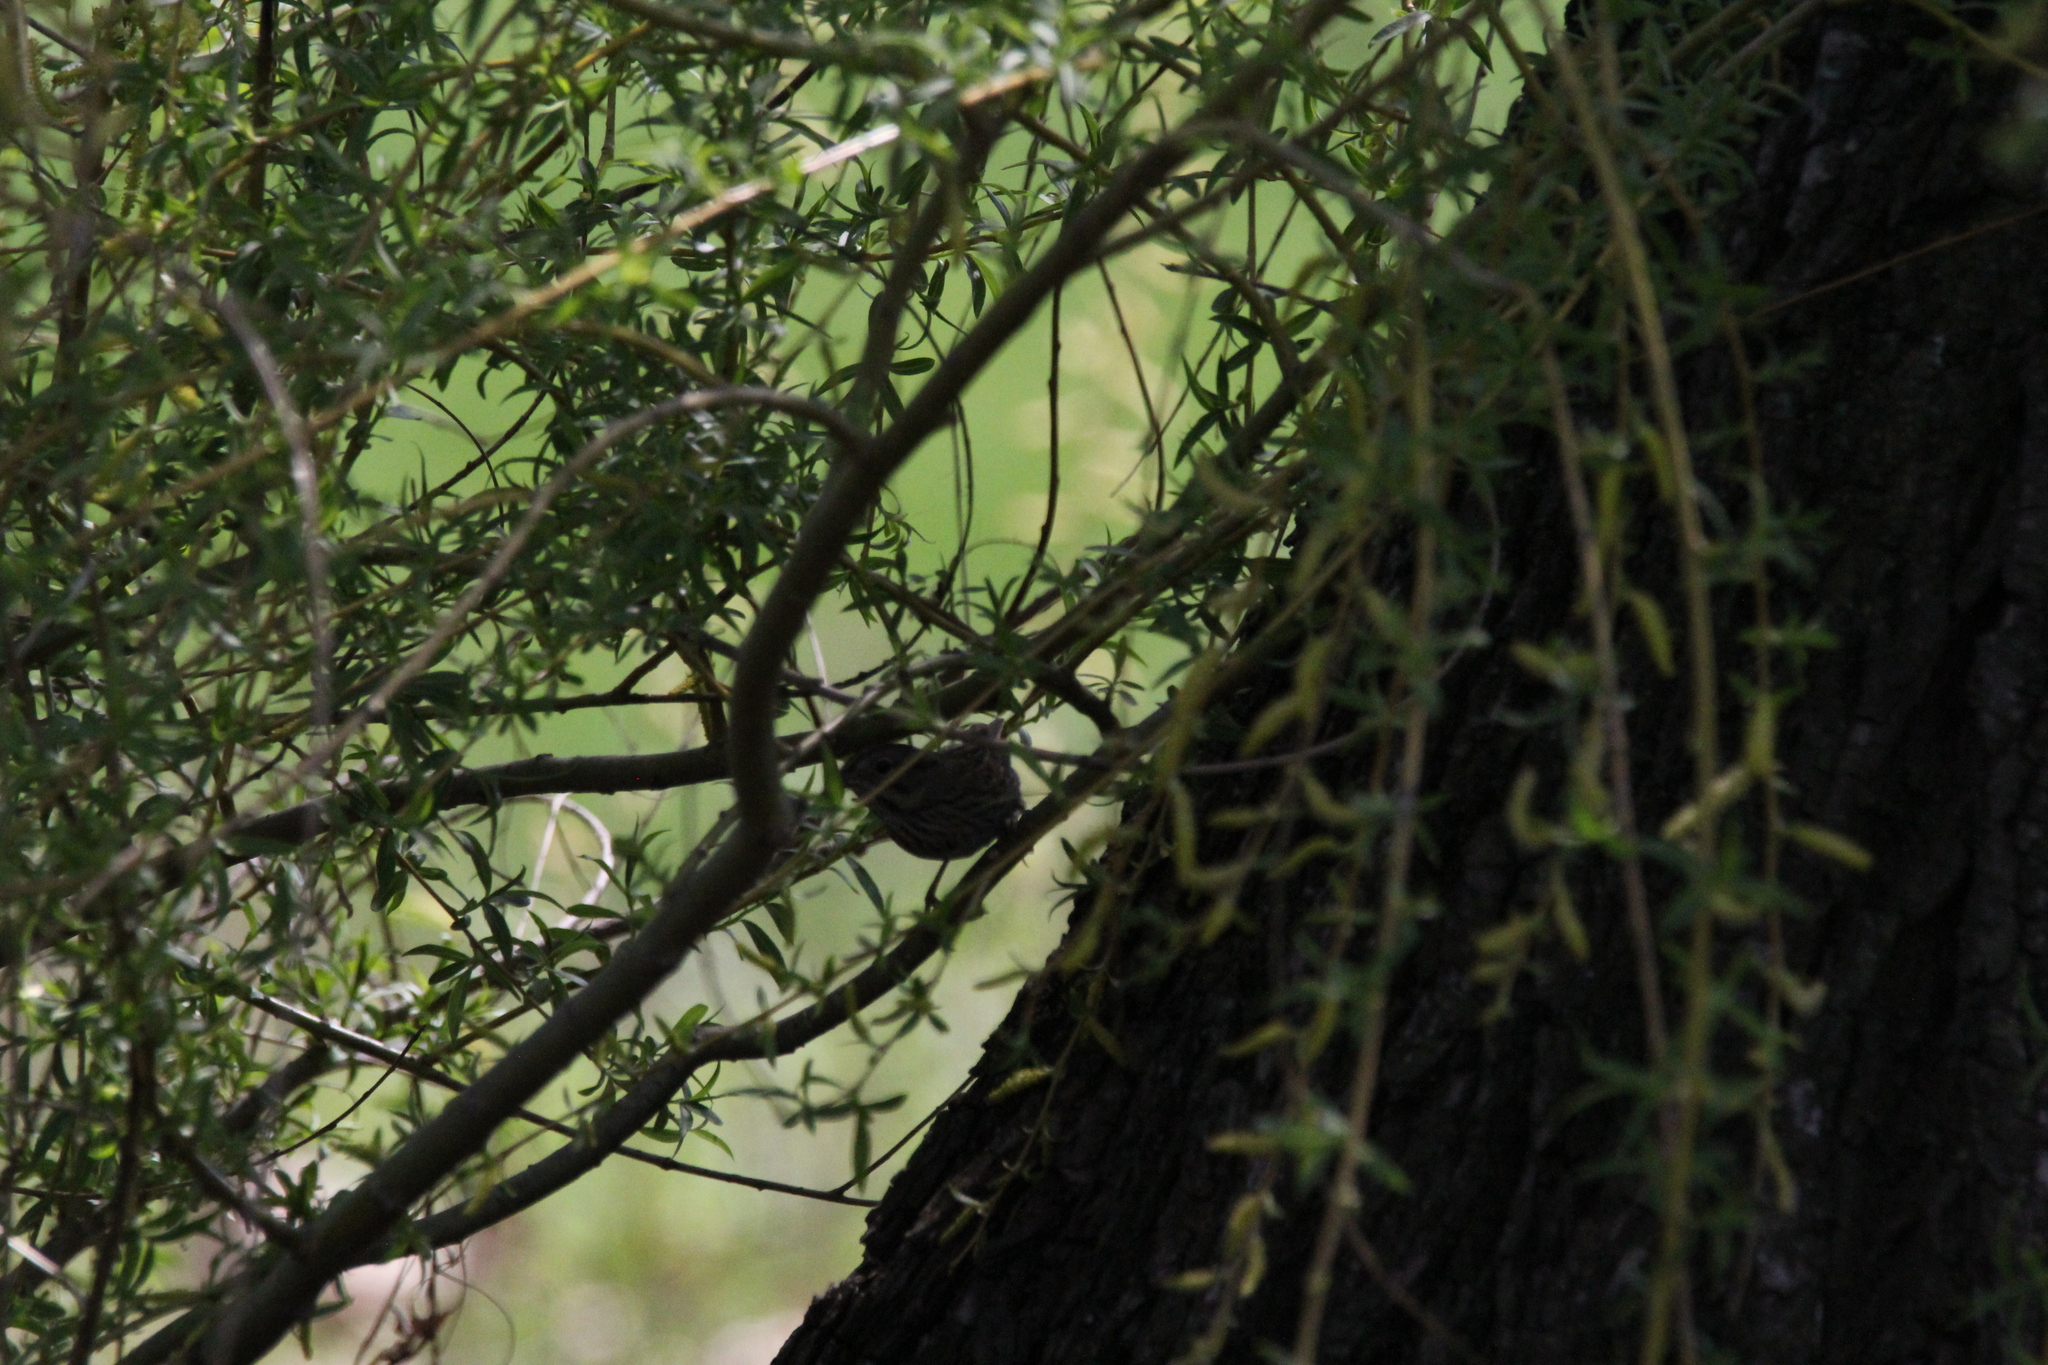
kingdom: Animalia
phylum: Chordata
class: Aves
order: Passeriformes
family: Passerellidae
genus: Melospiza
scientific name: Melospiza lincolnii
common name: Lincoln's sparrow
